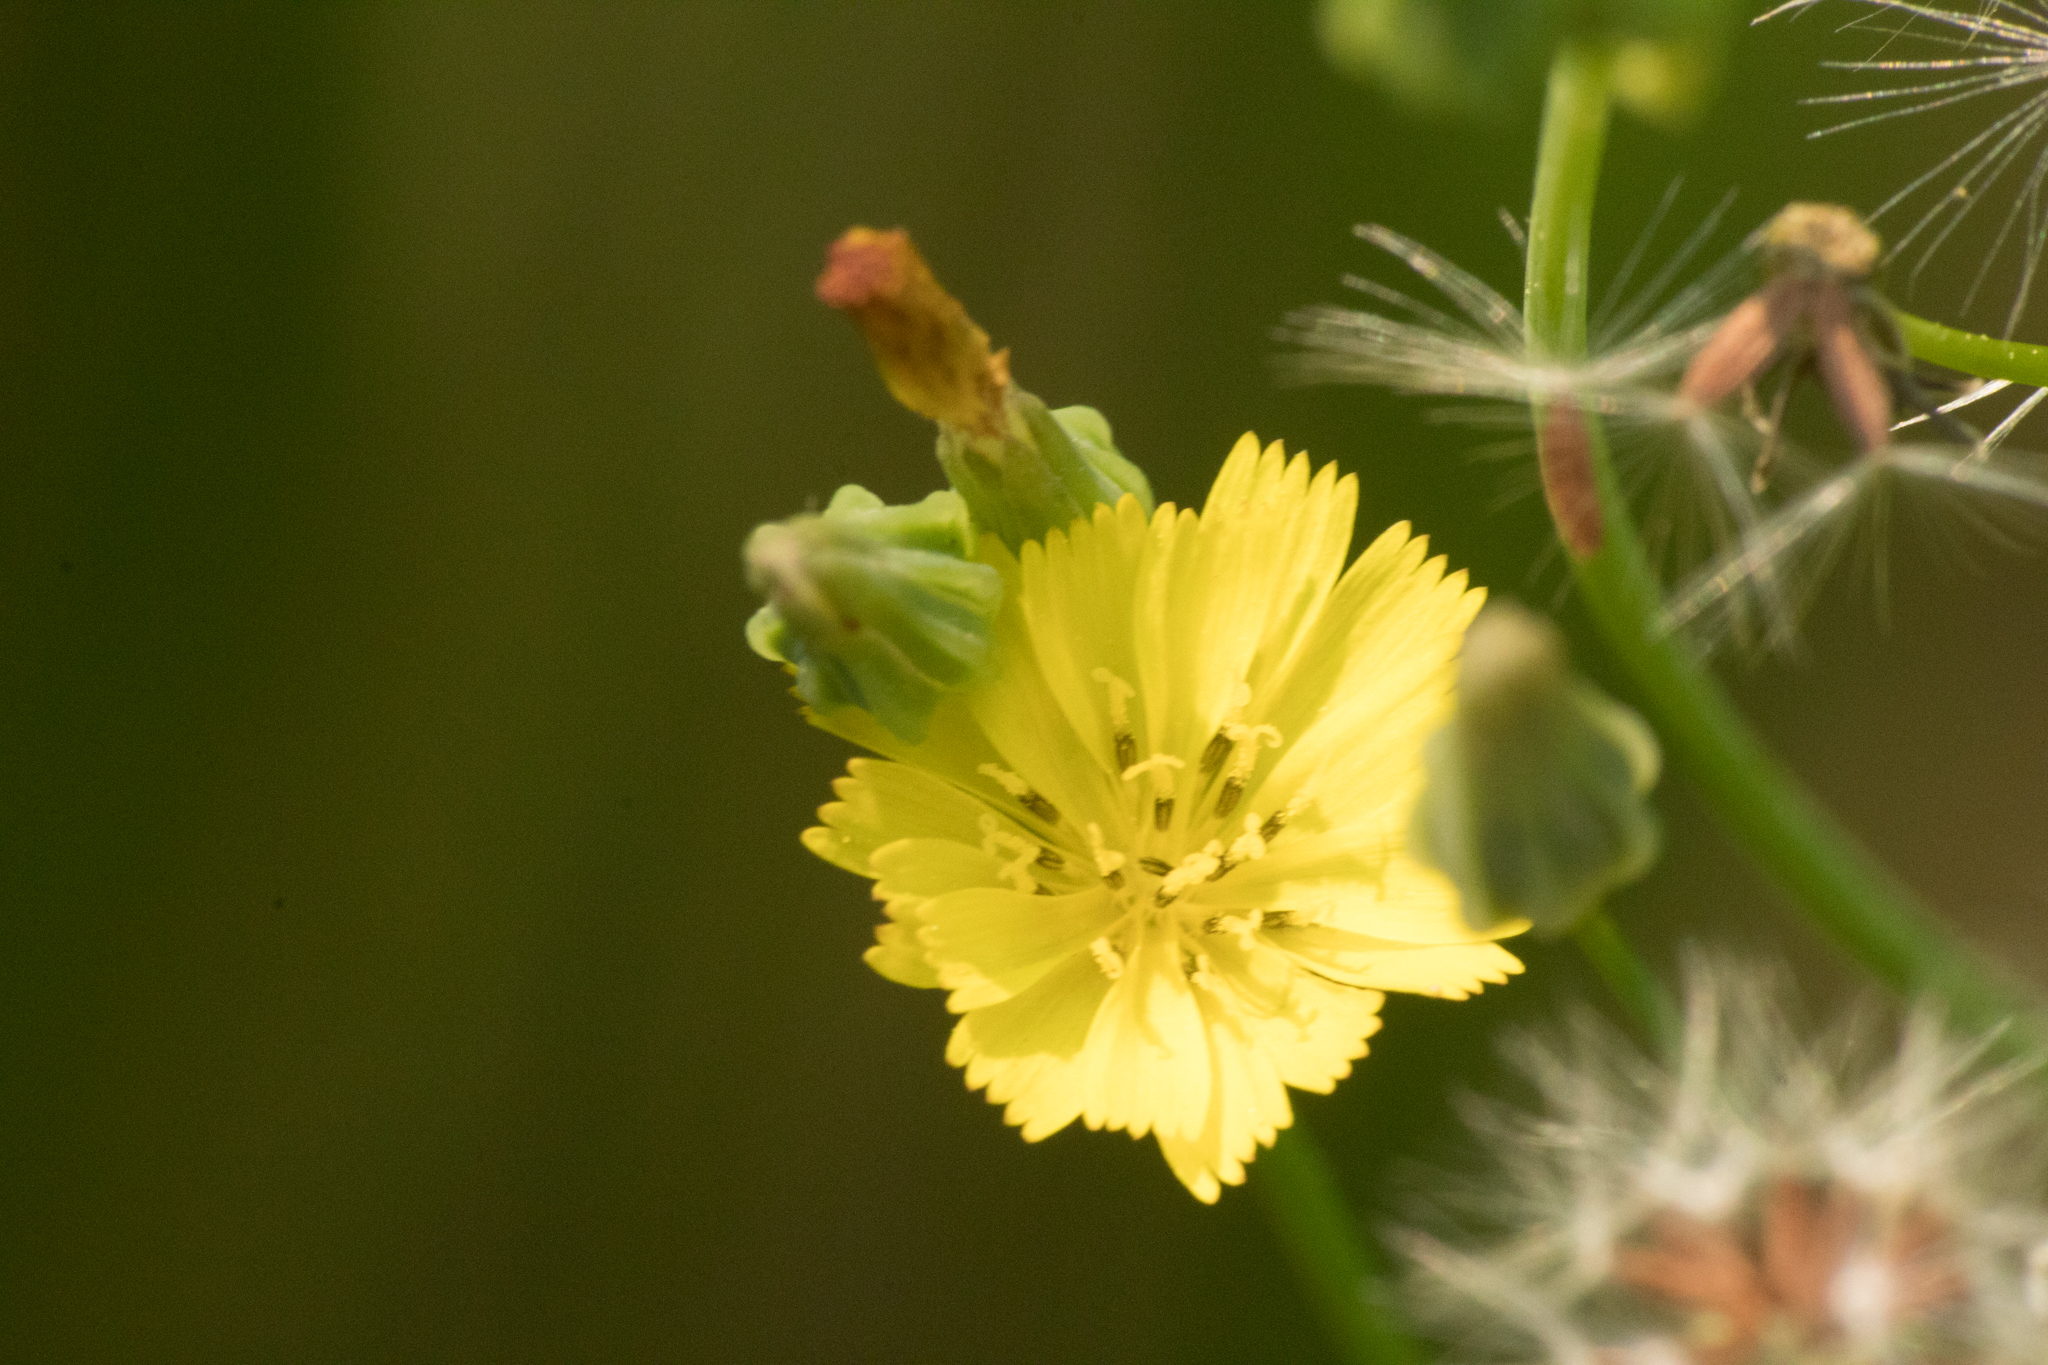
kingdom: Plantae
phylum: Tracheophyta
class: Magnoliopsida
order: Asterales
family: Asteraceae
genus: Youngia
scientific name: Youngia japonica
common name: Oriental false hawksbeard
